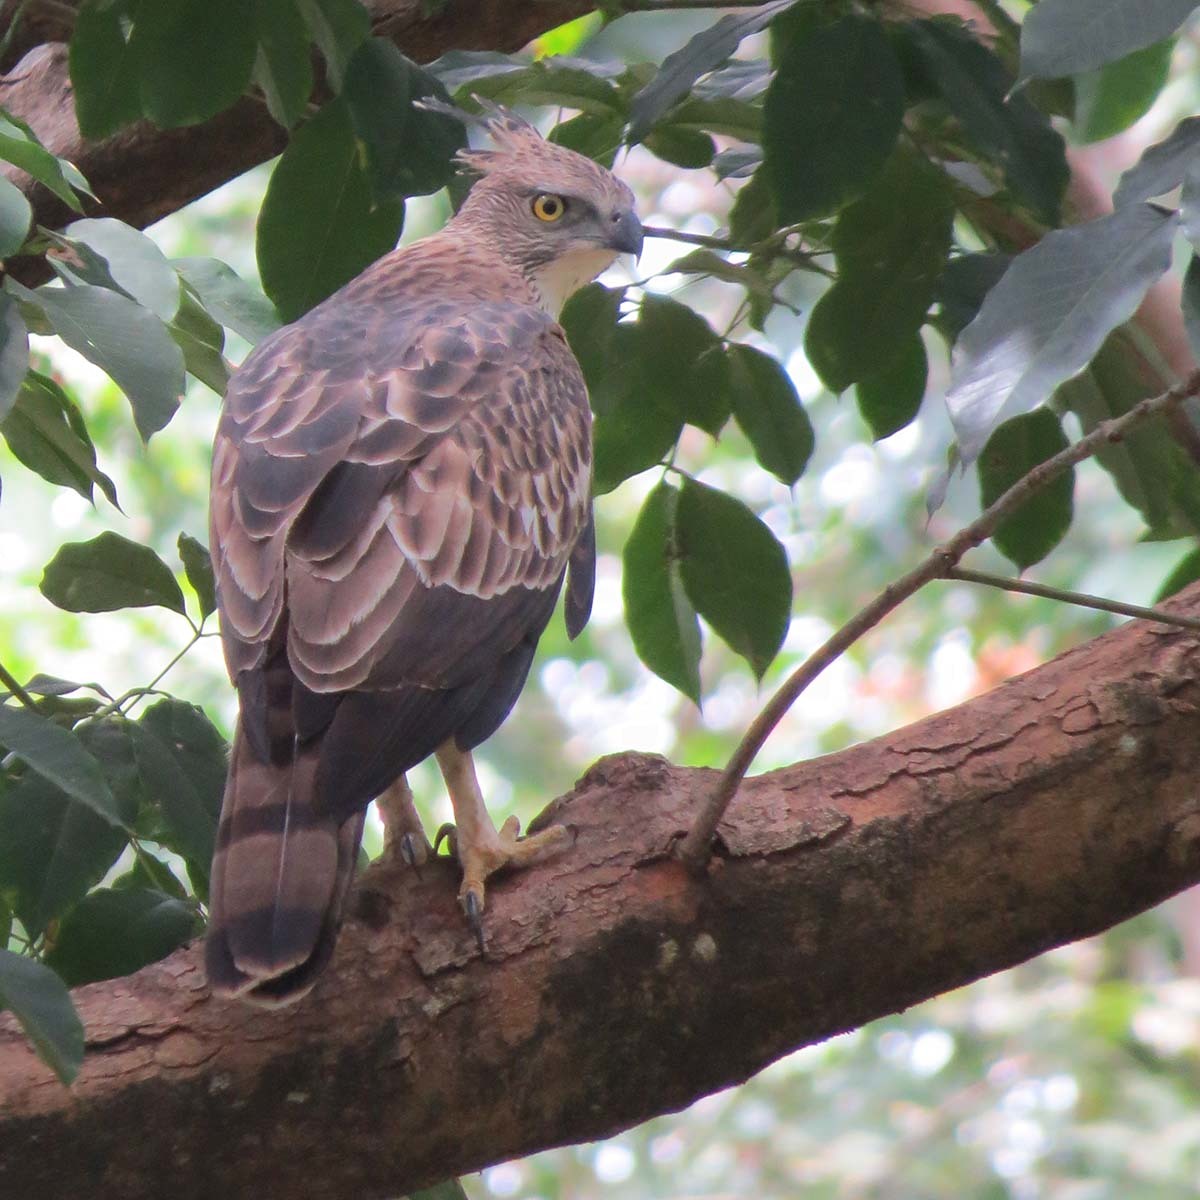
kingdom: Animalia
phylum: Chordata
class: Aves
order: Accipitriformes
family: Accipitridae
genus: Nisaetus
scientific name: Nisaetus cirrhatus
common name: Changeable hawk-eagle
